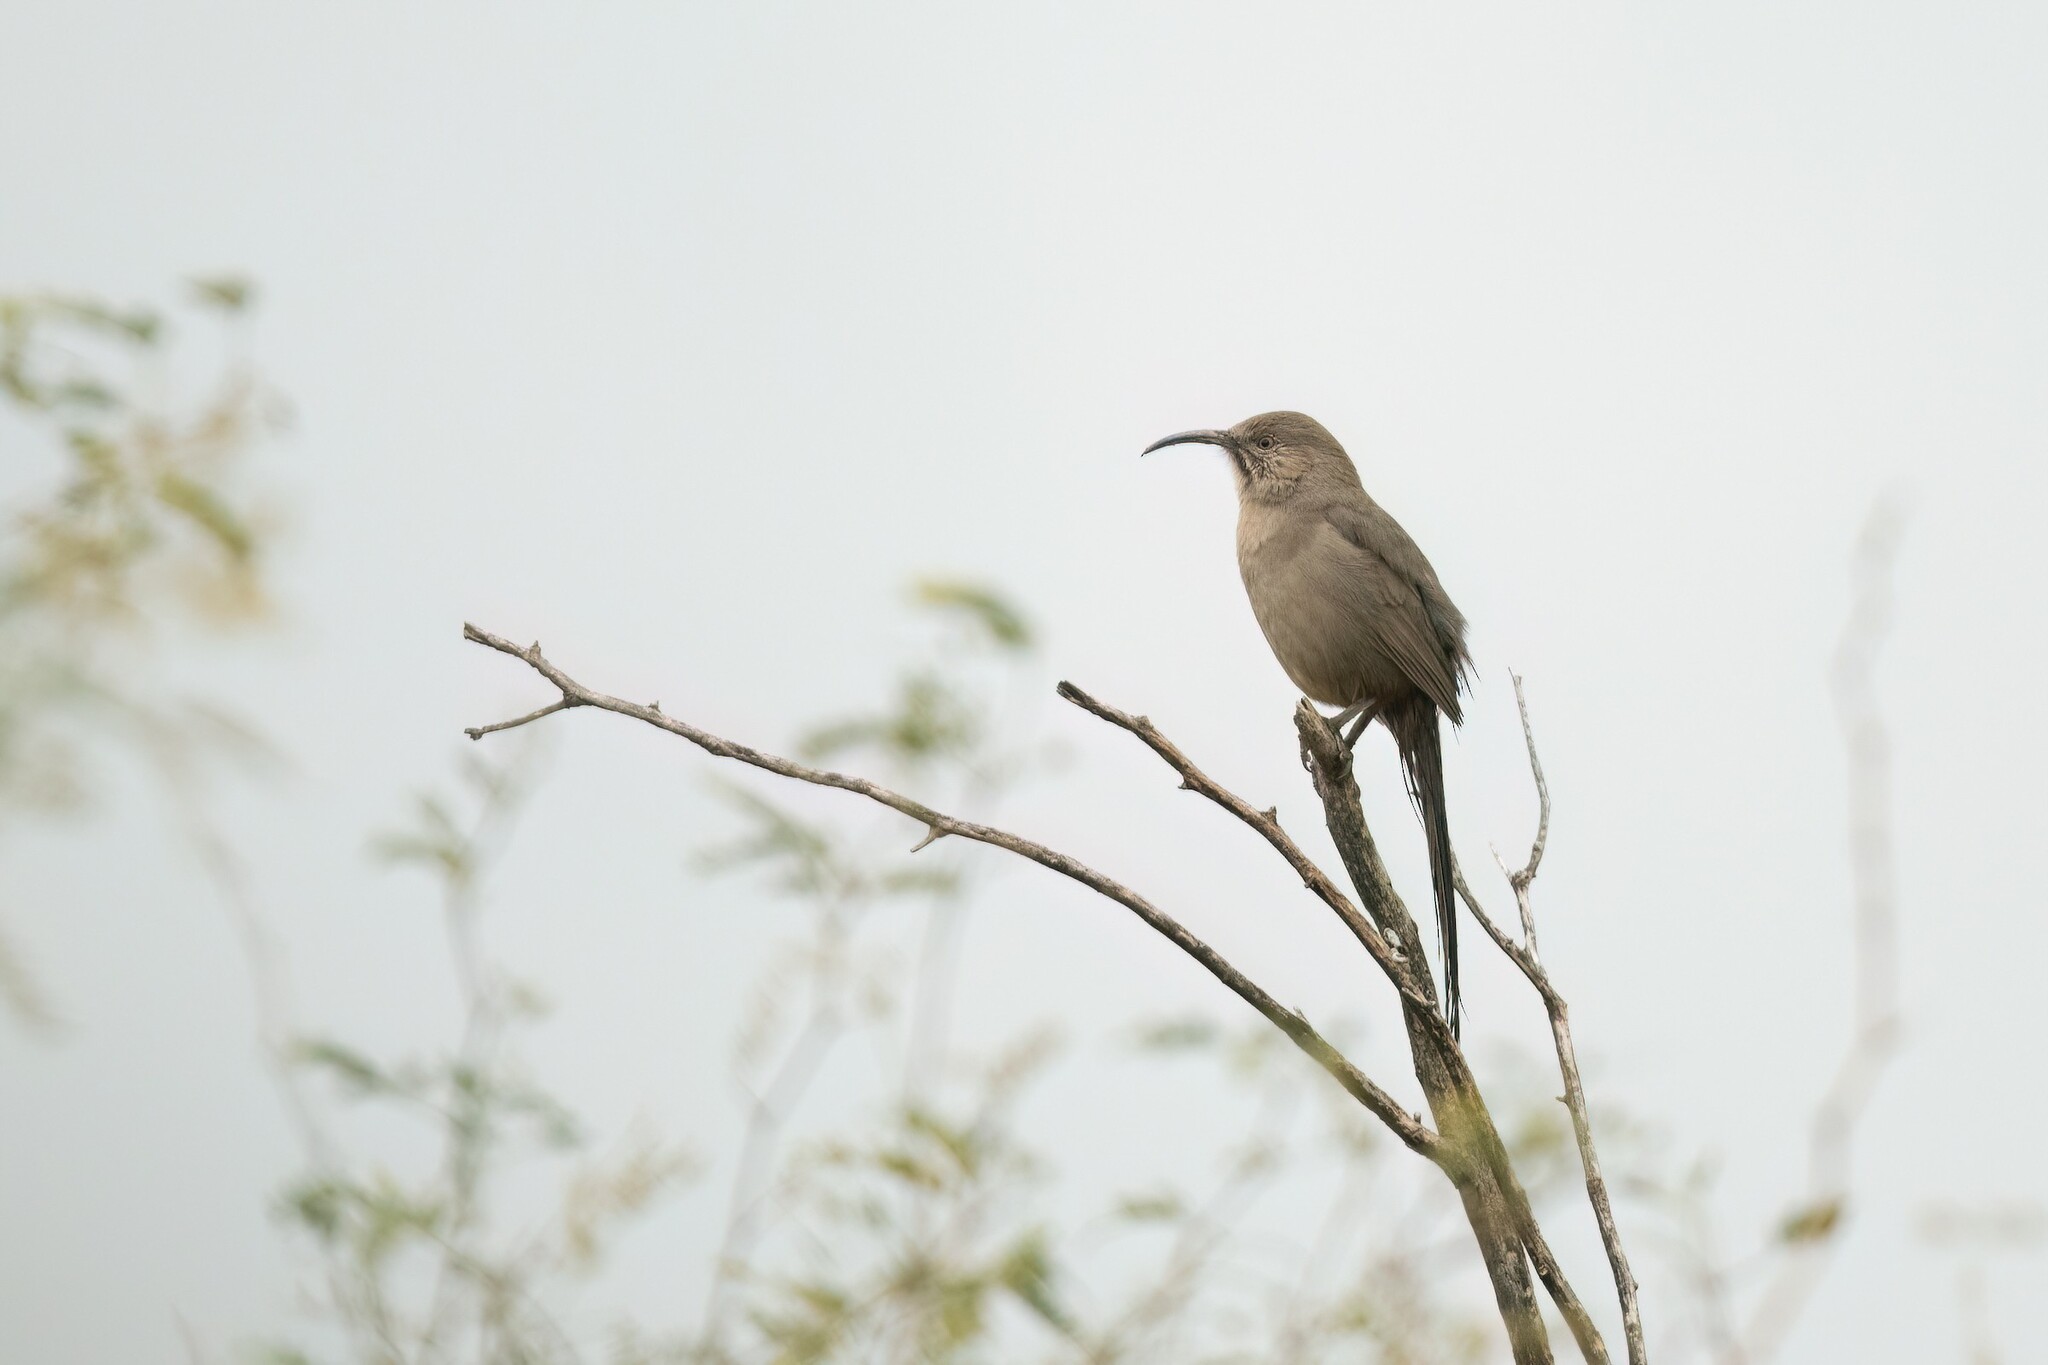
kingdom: Animalia
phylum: Chordata
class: Aves
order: Passeriformes
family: Mimidae
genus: Toxostoma
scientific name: Toxostoma crissale
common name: Crissal thrasher
